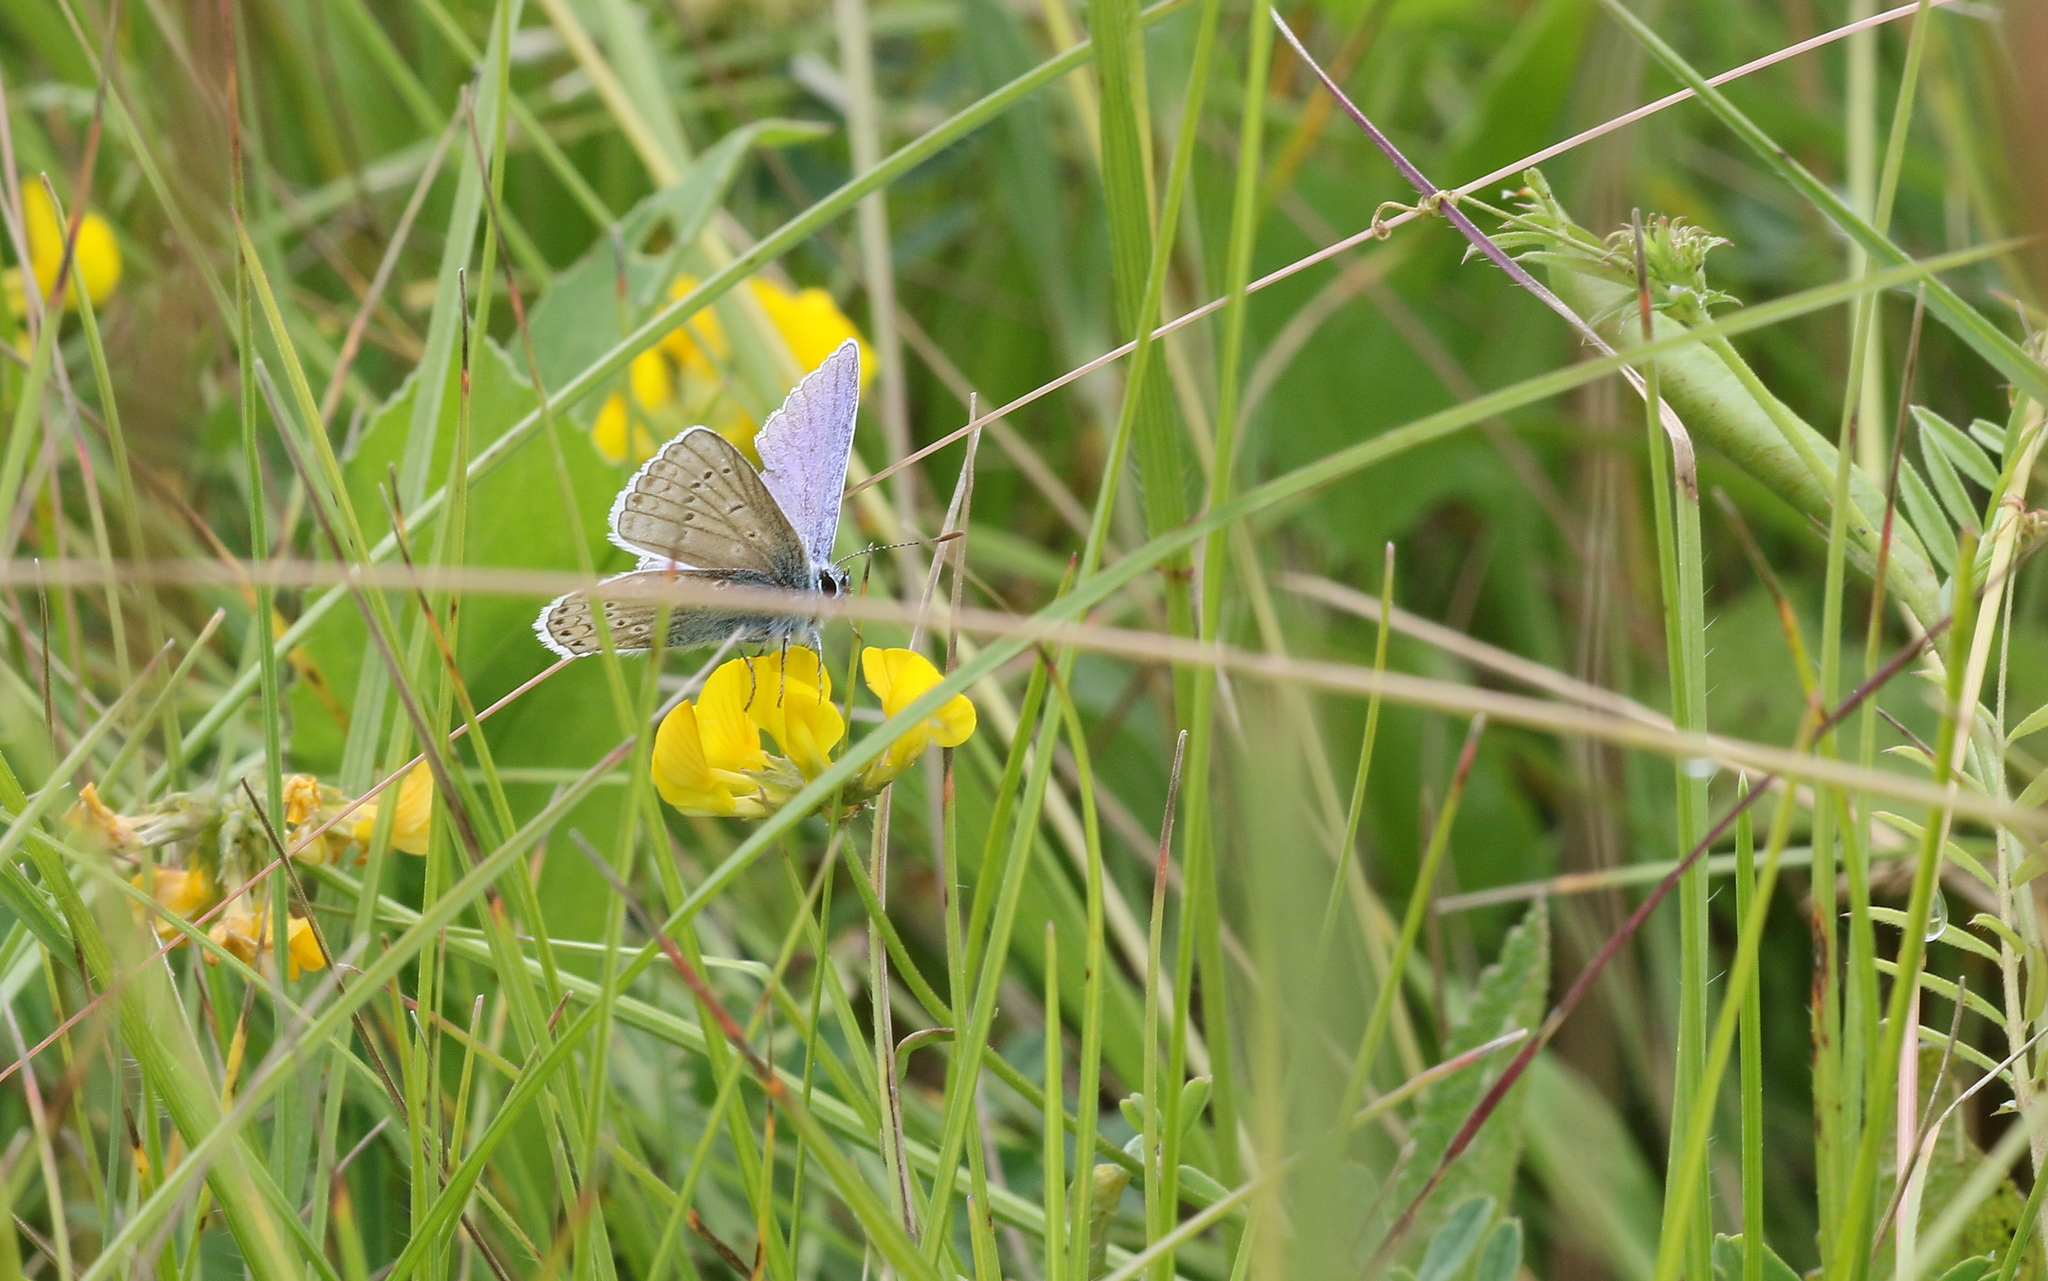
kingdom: Animalia
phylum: Arthropoda
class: Insecta
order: Lepidoptera
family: Lycaenidae
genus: Polyommatus
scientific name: Polyommatus icarus
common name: Common blue
